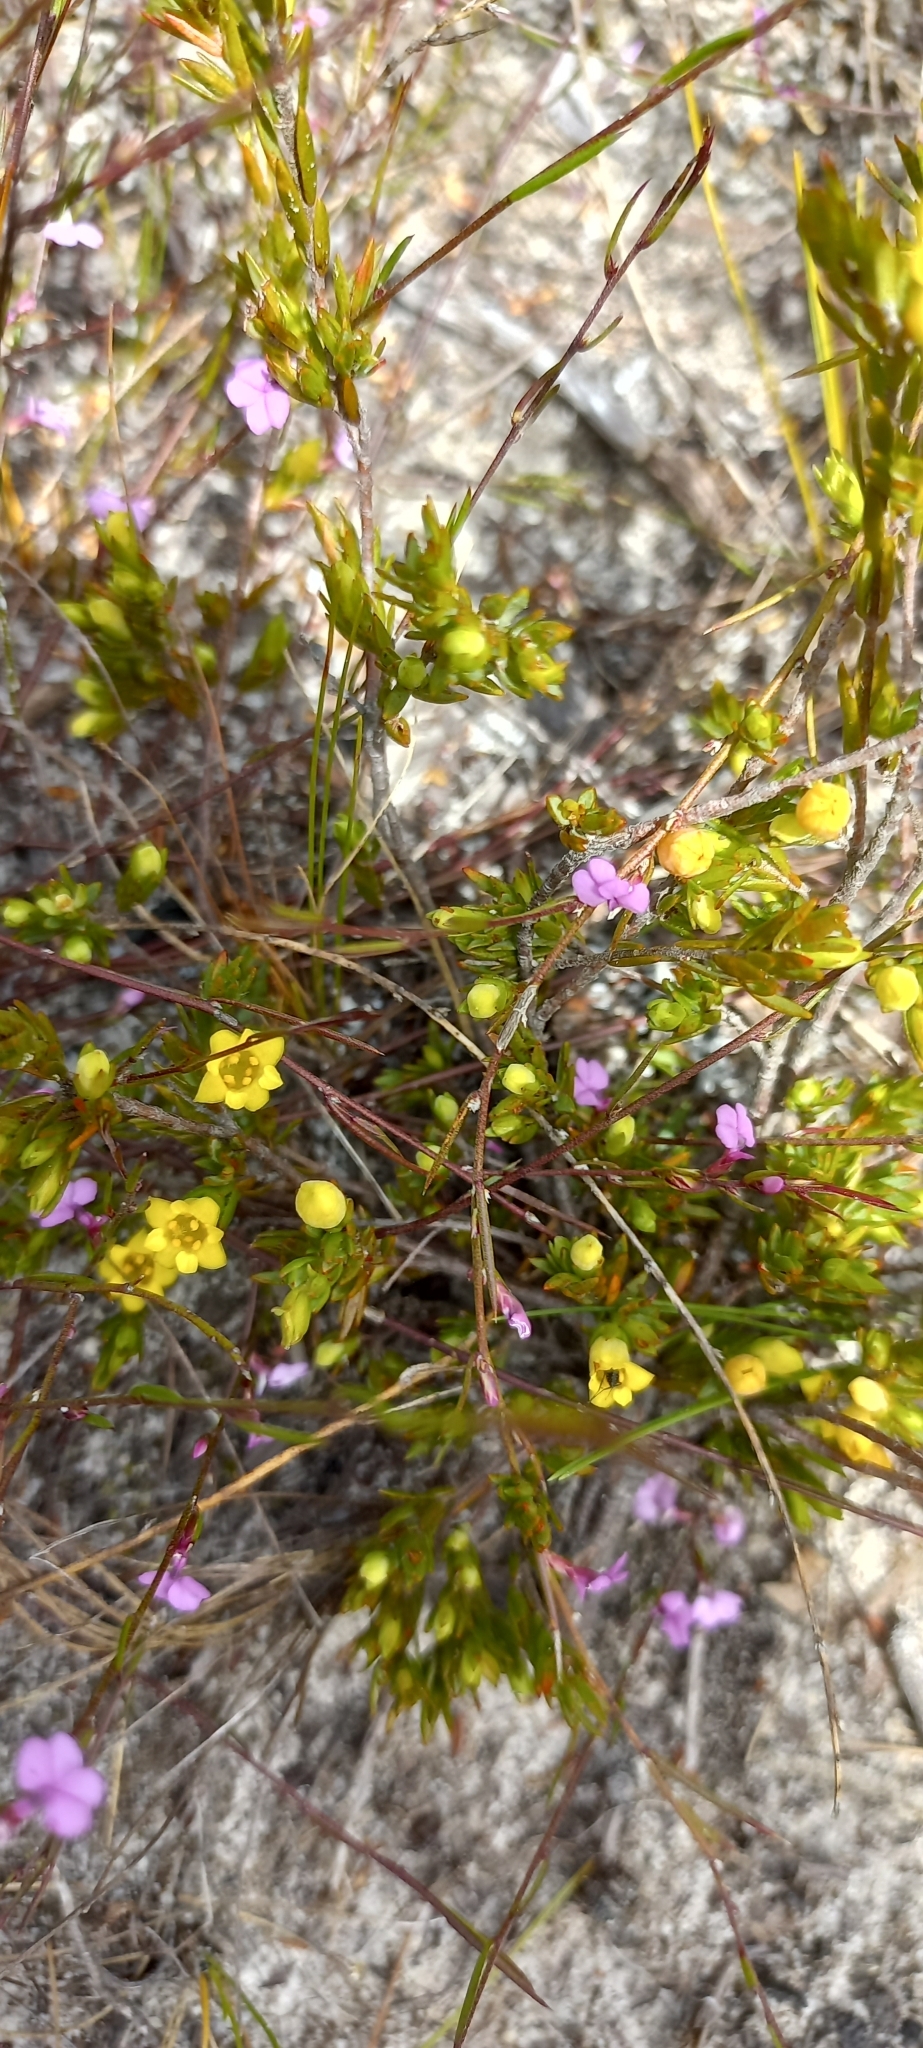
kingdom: Plantae
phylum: Tracheophyta
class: Magnoliopsida
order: Malvales
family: Thymelaeaceae
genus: Gnidia
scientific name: Gnidia juniperifolia
